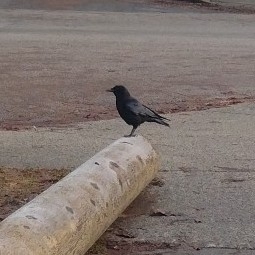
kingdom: Animalia
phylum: Chordata
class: Aves
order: Passeriformes
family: Corvidae
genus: Corvus
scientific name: Corvus brachyrhynchos
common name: American crow
